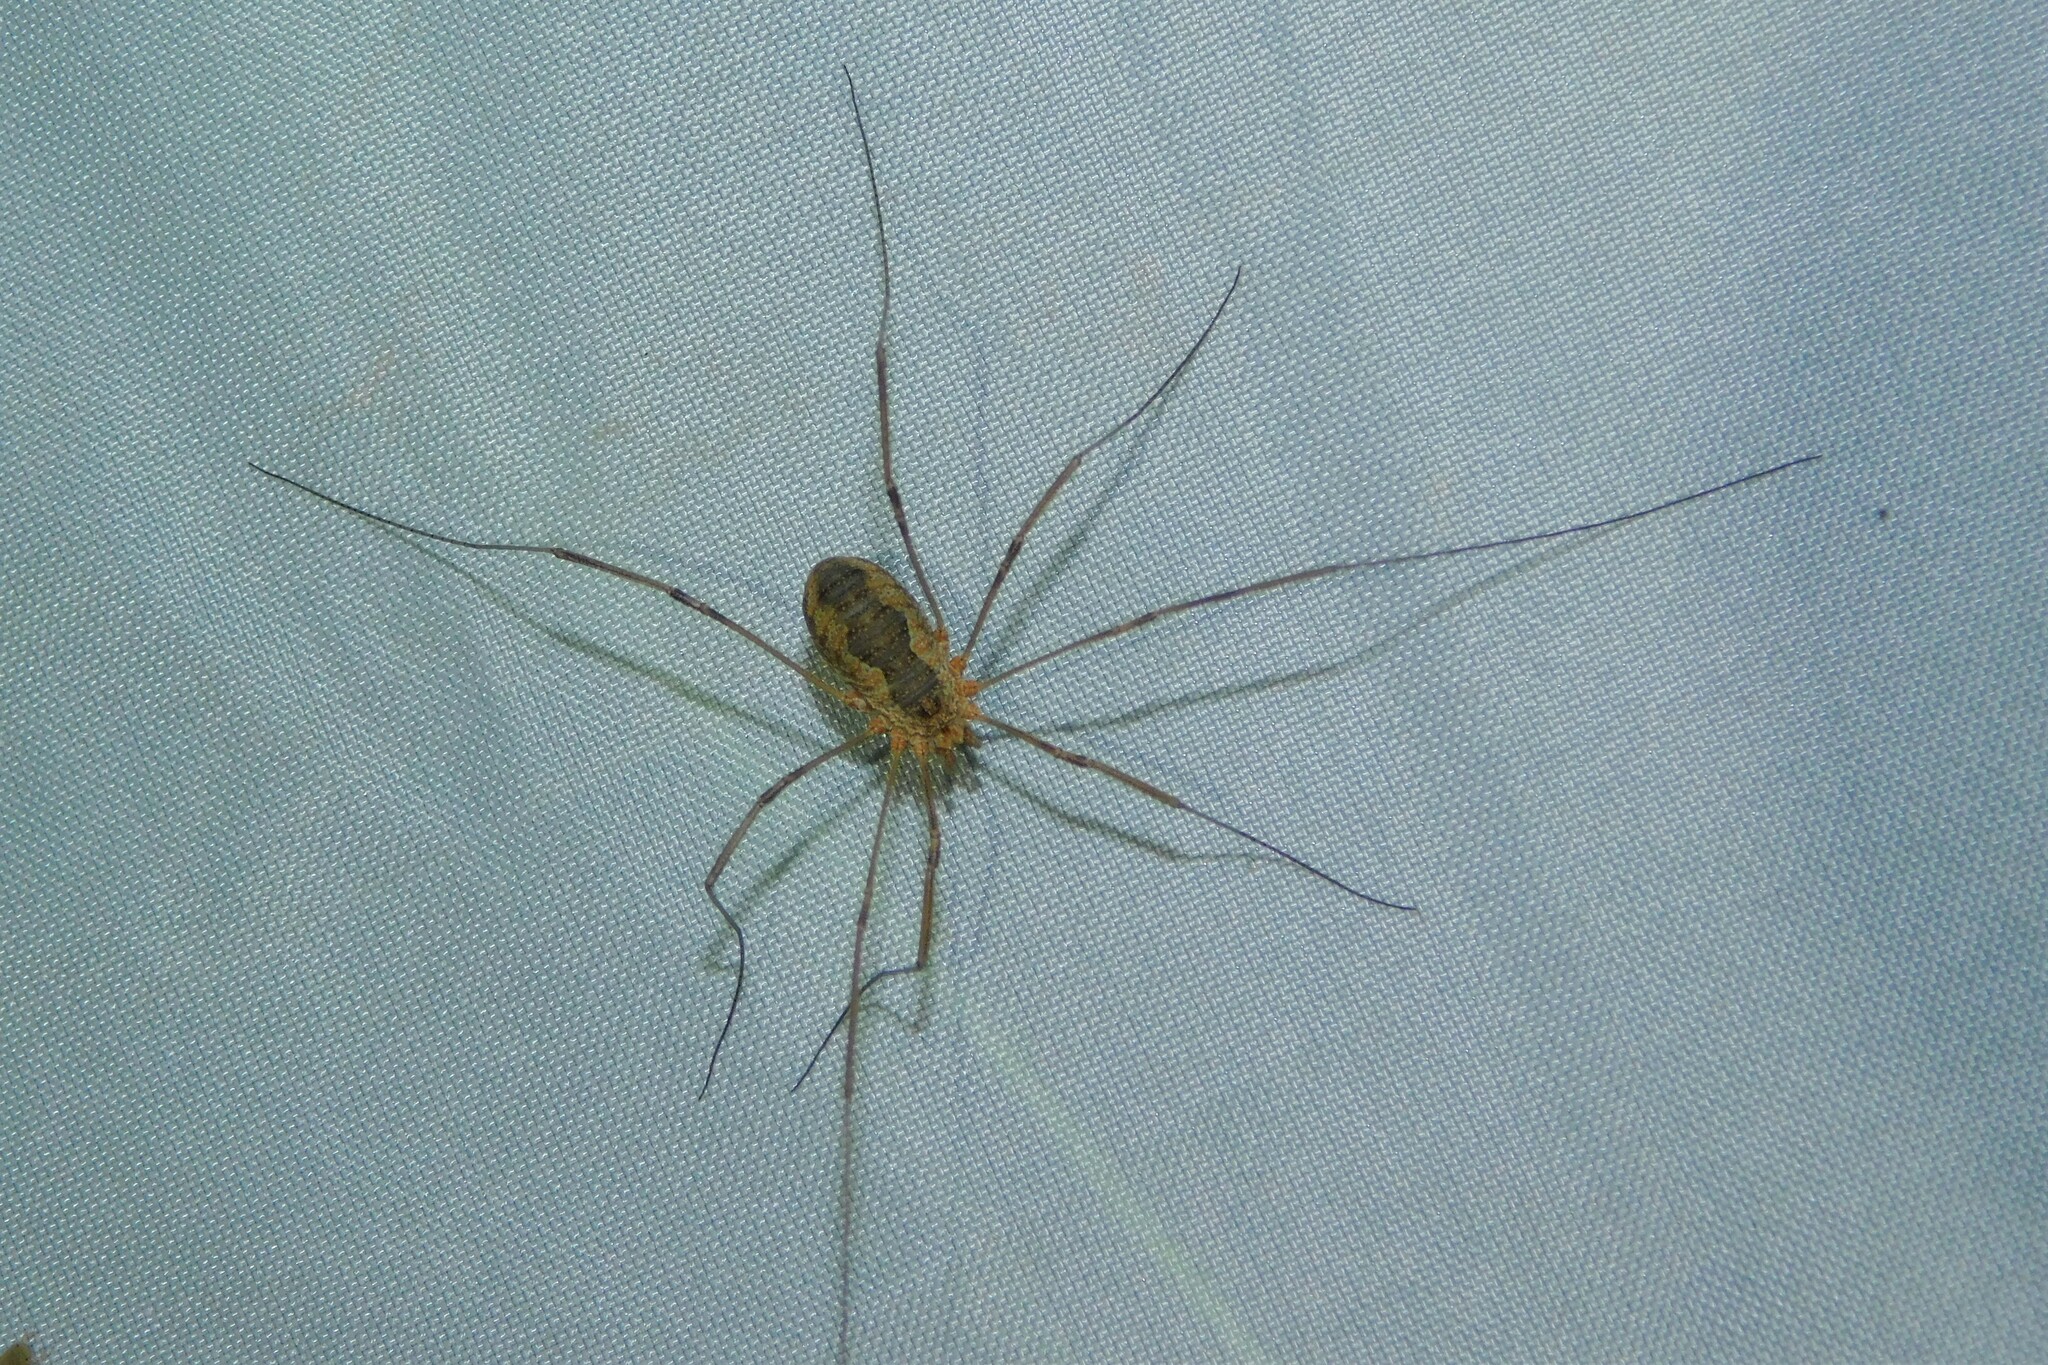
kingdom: Animalia
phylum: Arthropoda
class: Arachnida
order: Opiliones
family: Phalangiidae
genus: Phalangium
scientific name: Phalangium opilio
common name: Daddy longleg
